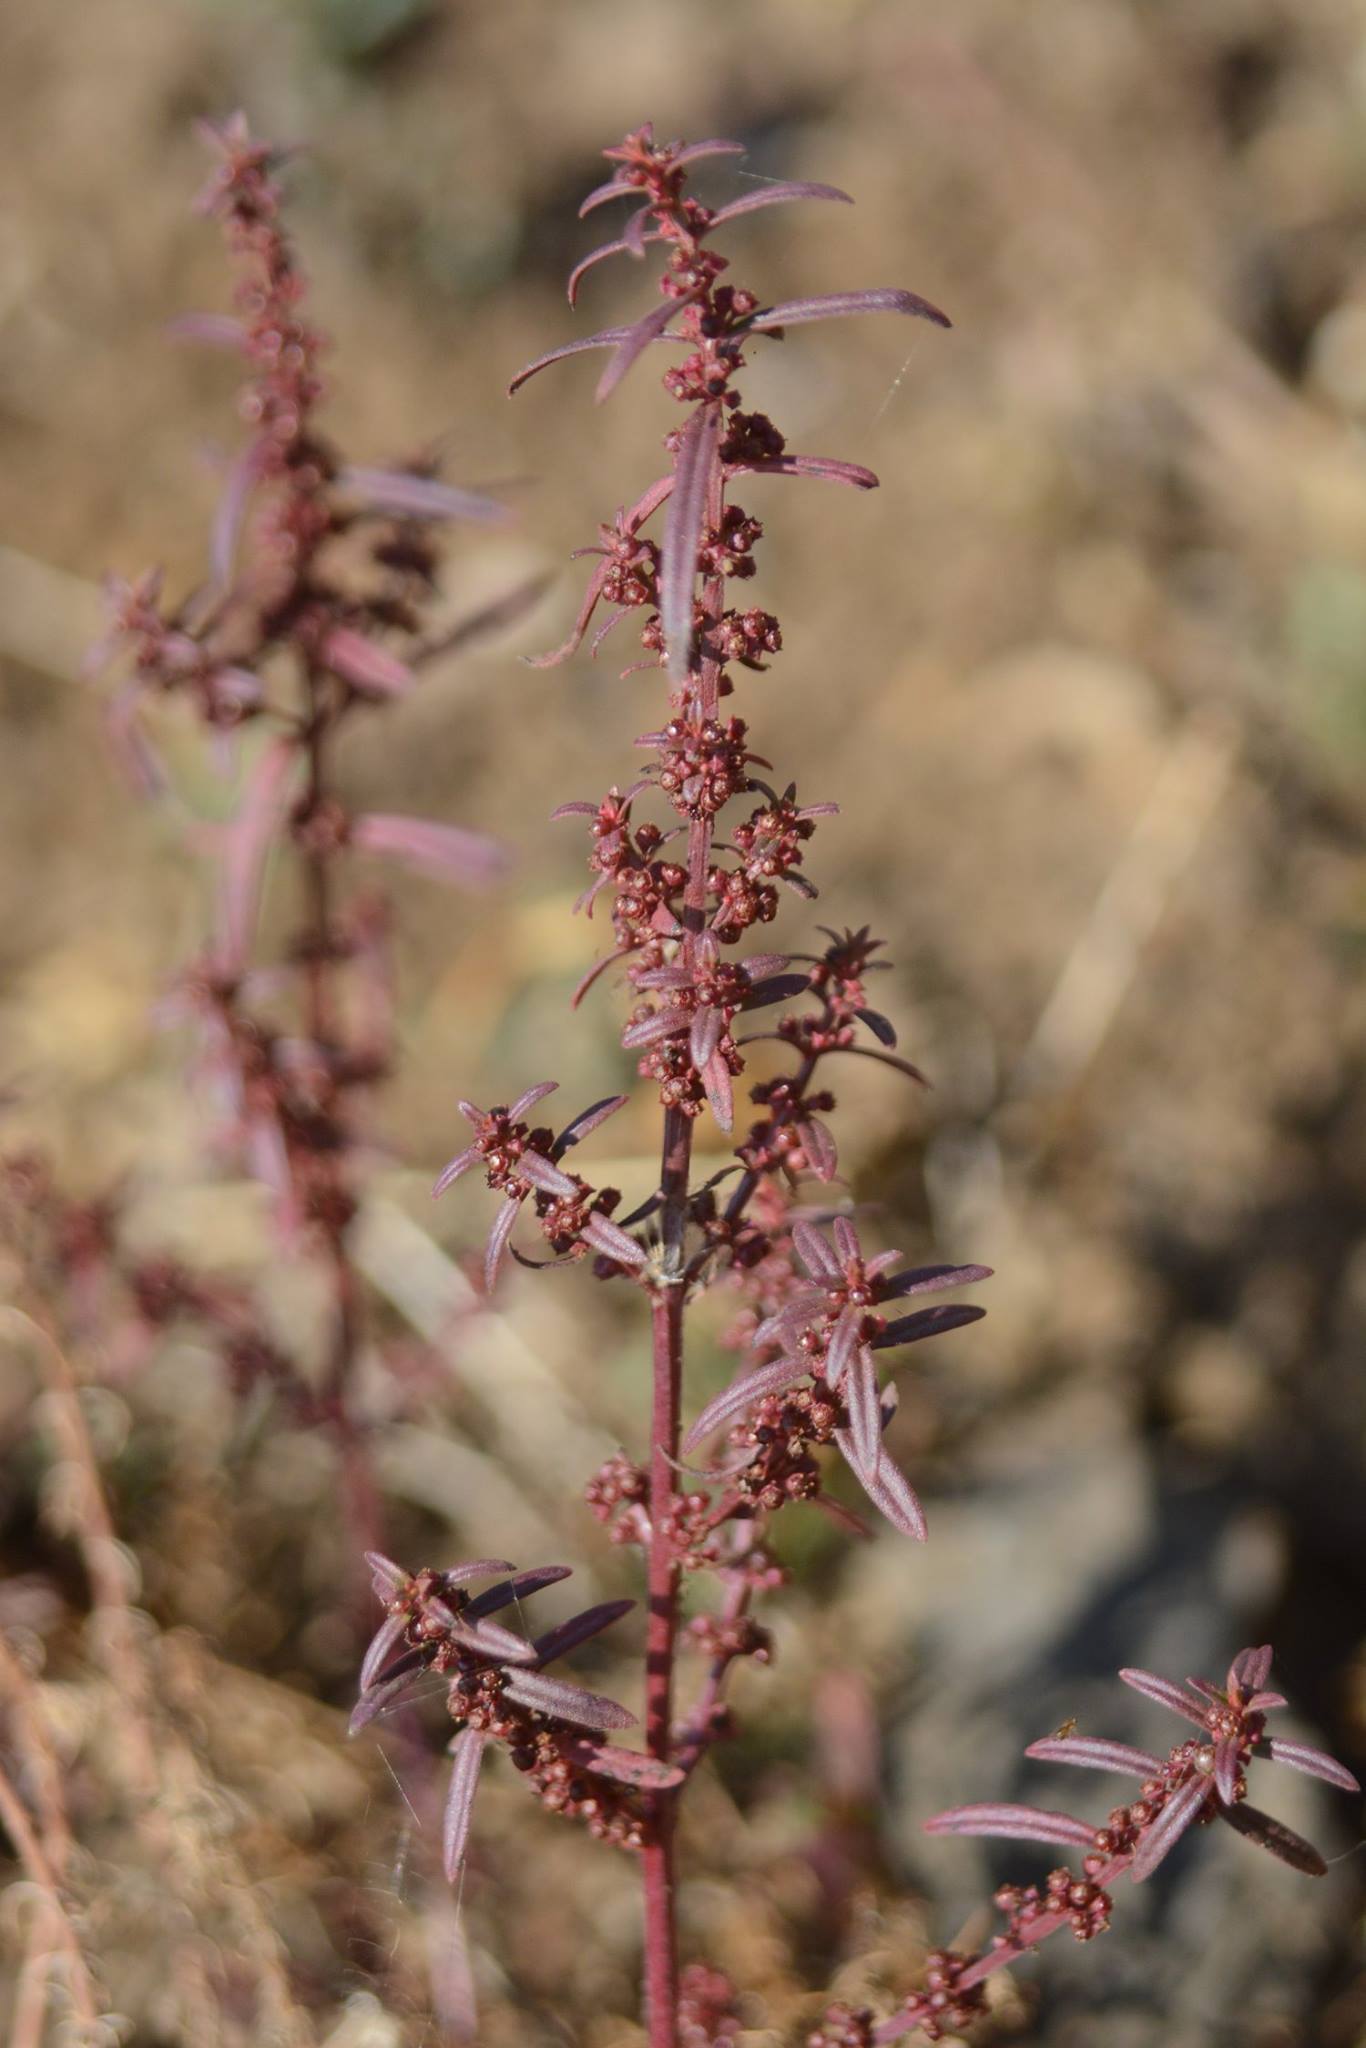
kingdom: Plantae
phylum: Tracheophyta
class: Magnoliopsida
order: Myrtales
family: Lythraceae
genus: Ammannia
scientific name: Ammannia baccifera
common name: Blistering ammania
